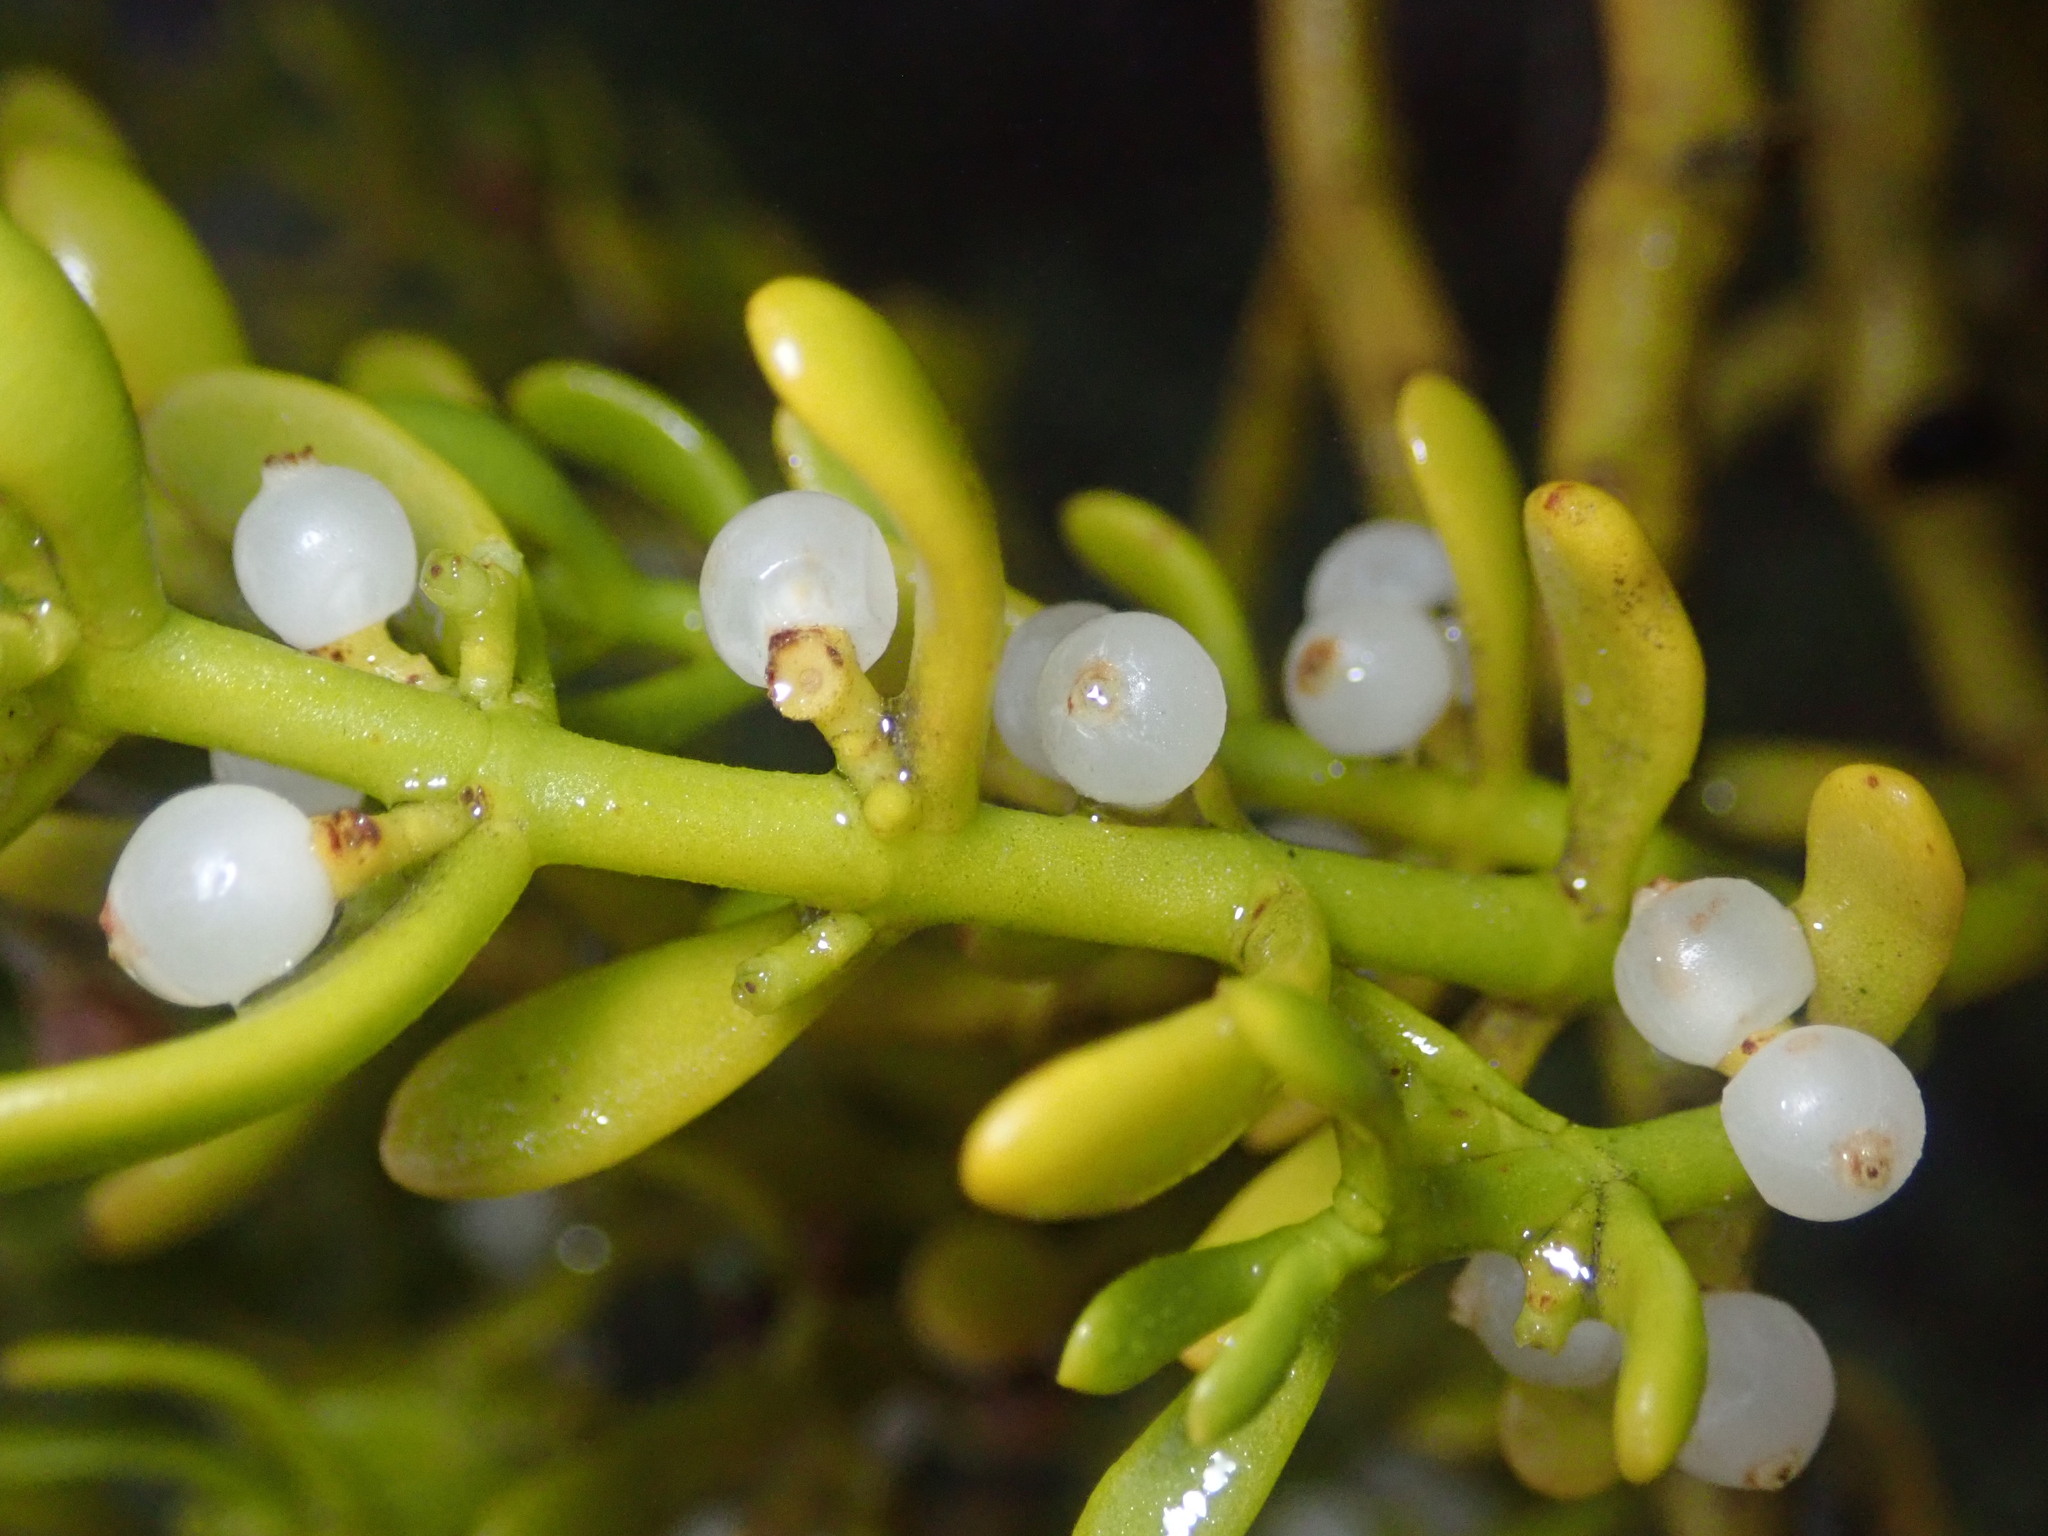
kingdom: Plantae
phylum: Tracheophyta
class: Magnoliopsida
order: Santalales
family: Viscaceae
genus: Phoradendron
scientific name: Phoradendron bolleanum
